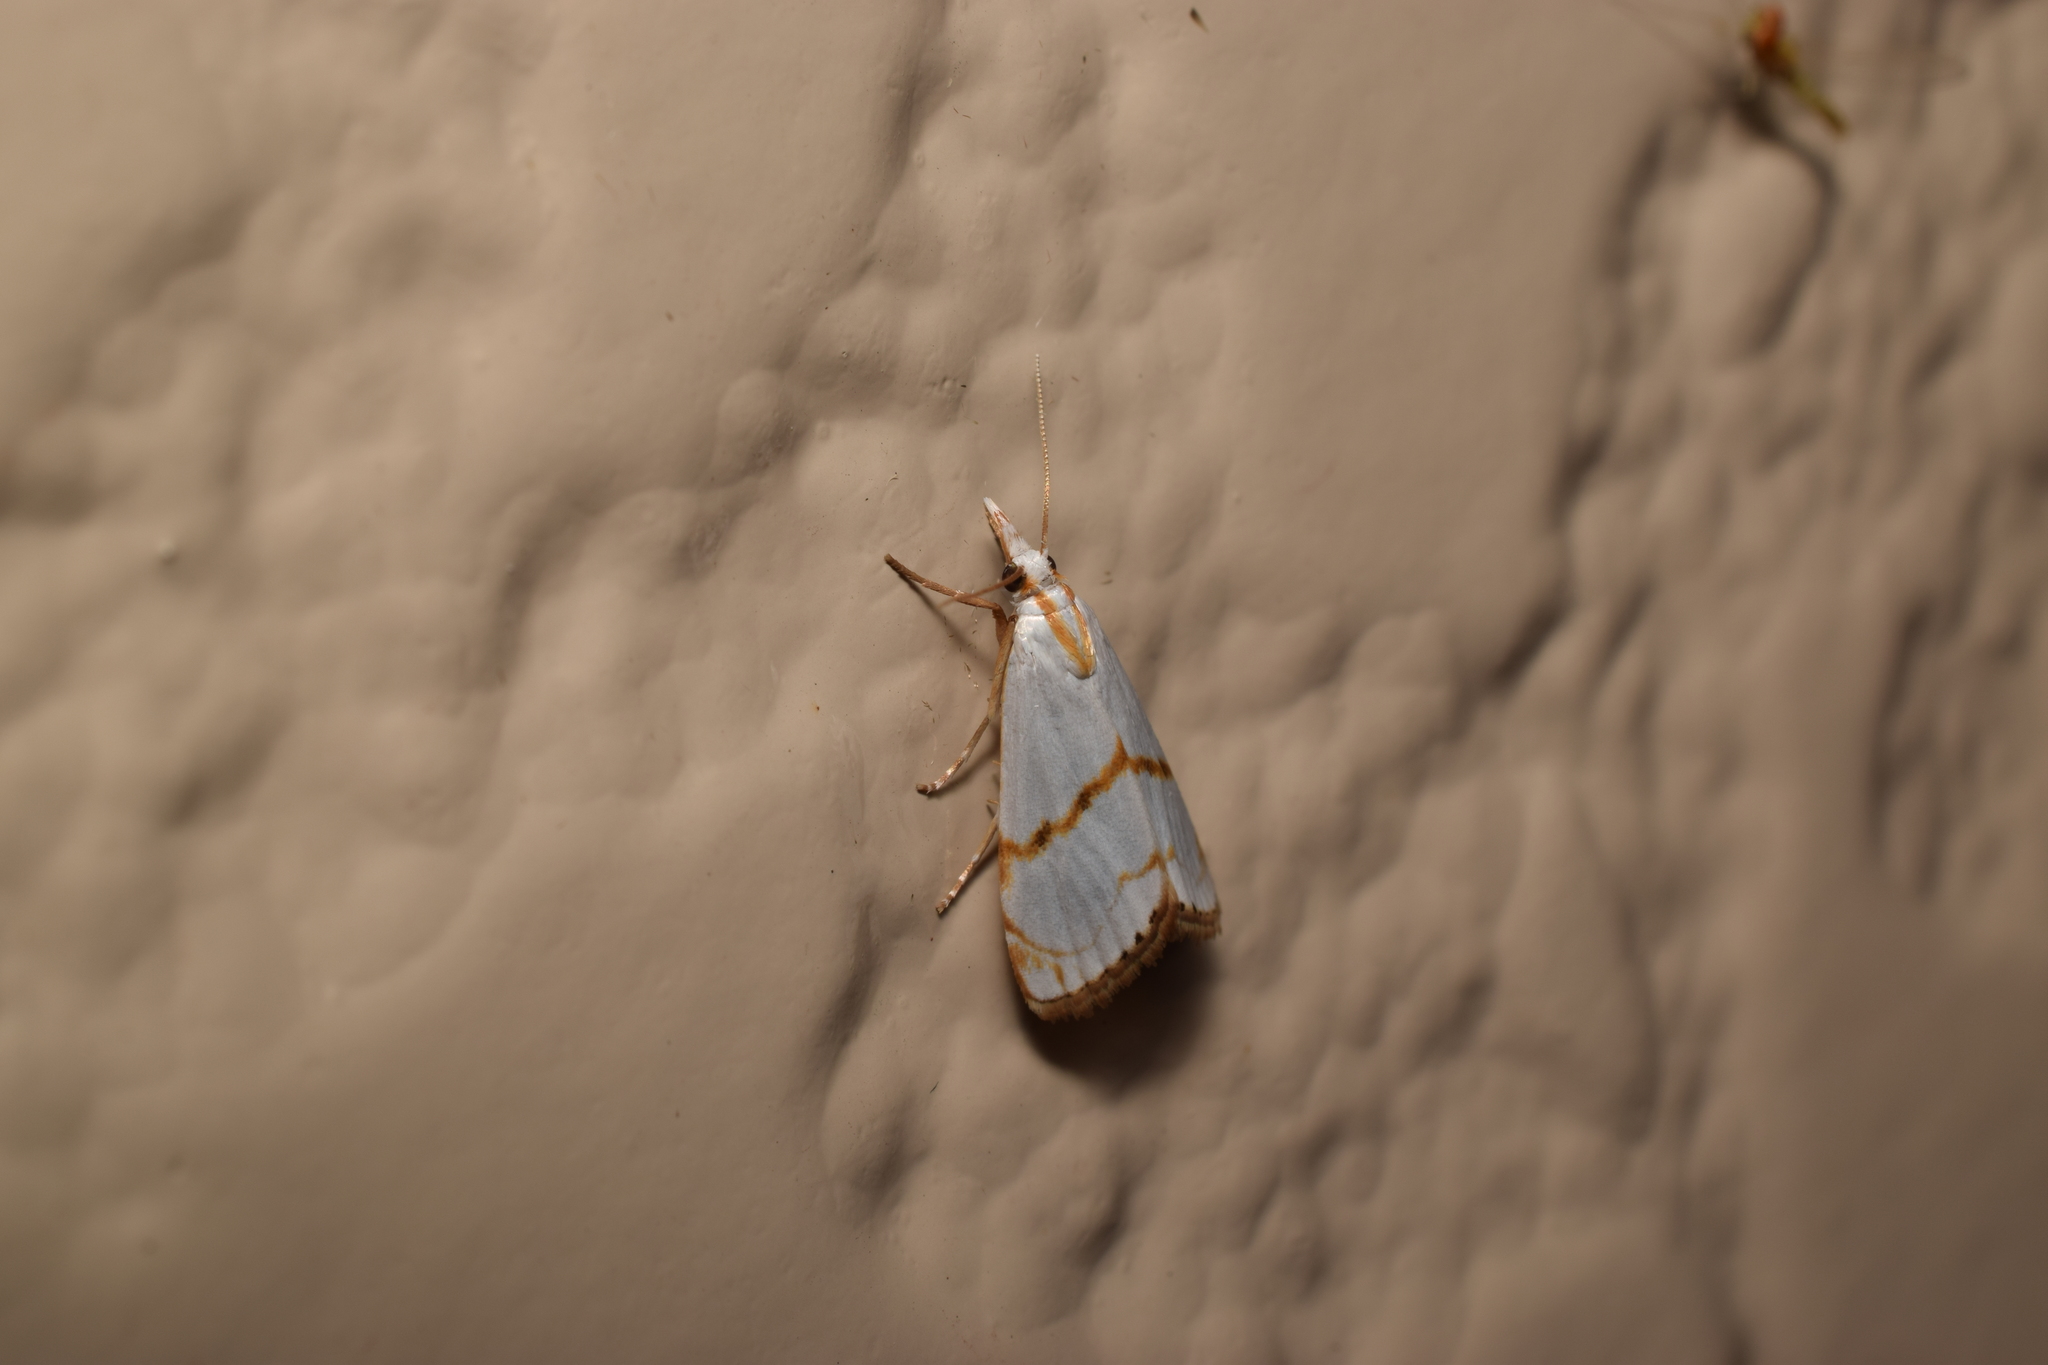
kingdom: Animalia
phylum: Arthropoda
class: Insecta
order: Lepidoptera
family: Crambidae
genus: Pseudargyria
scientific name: Pseudargyria interruptella
